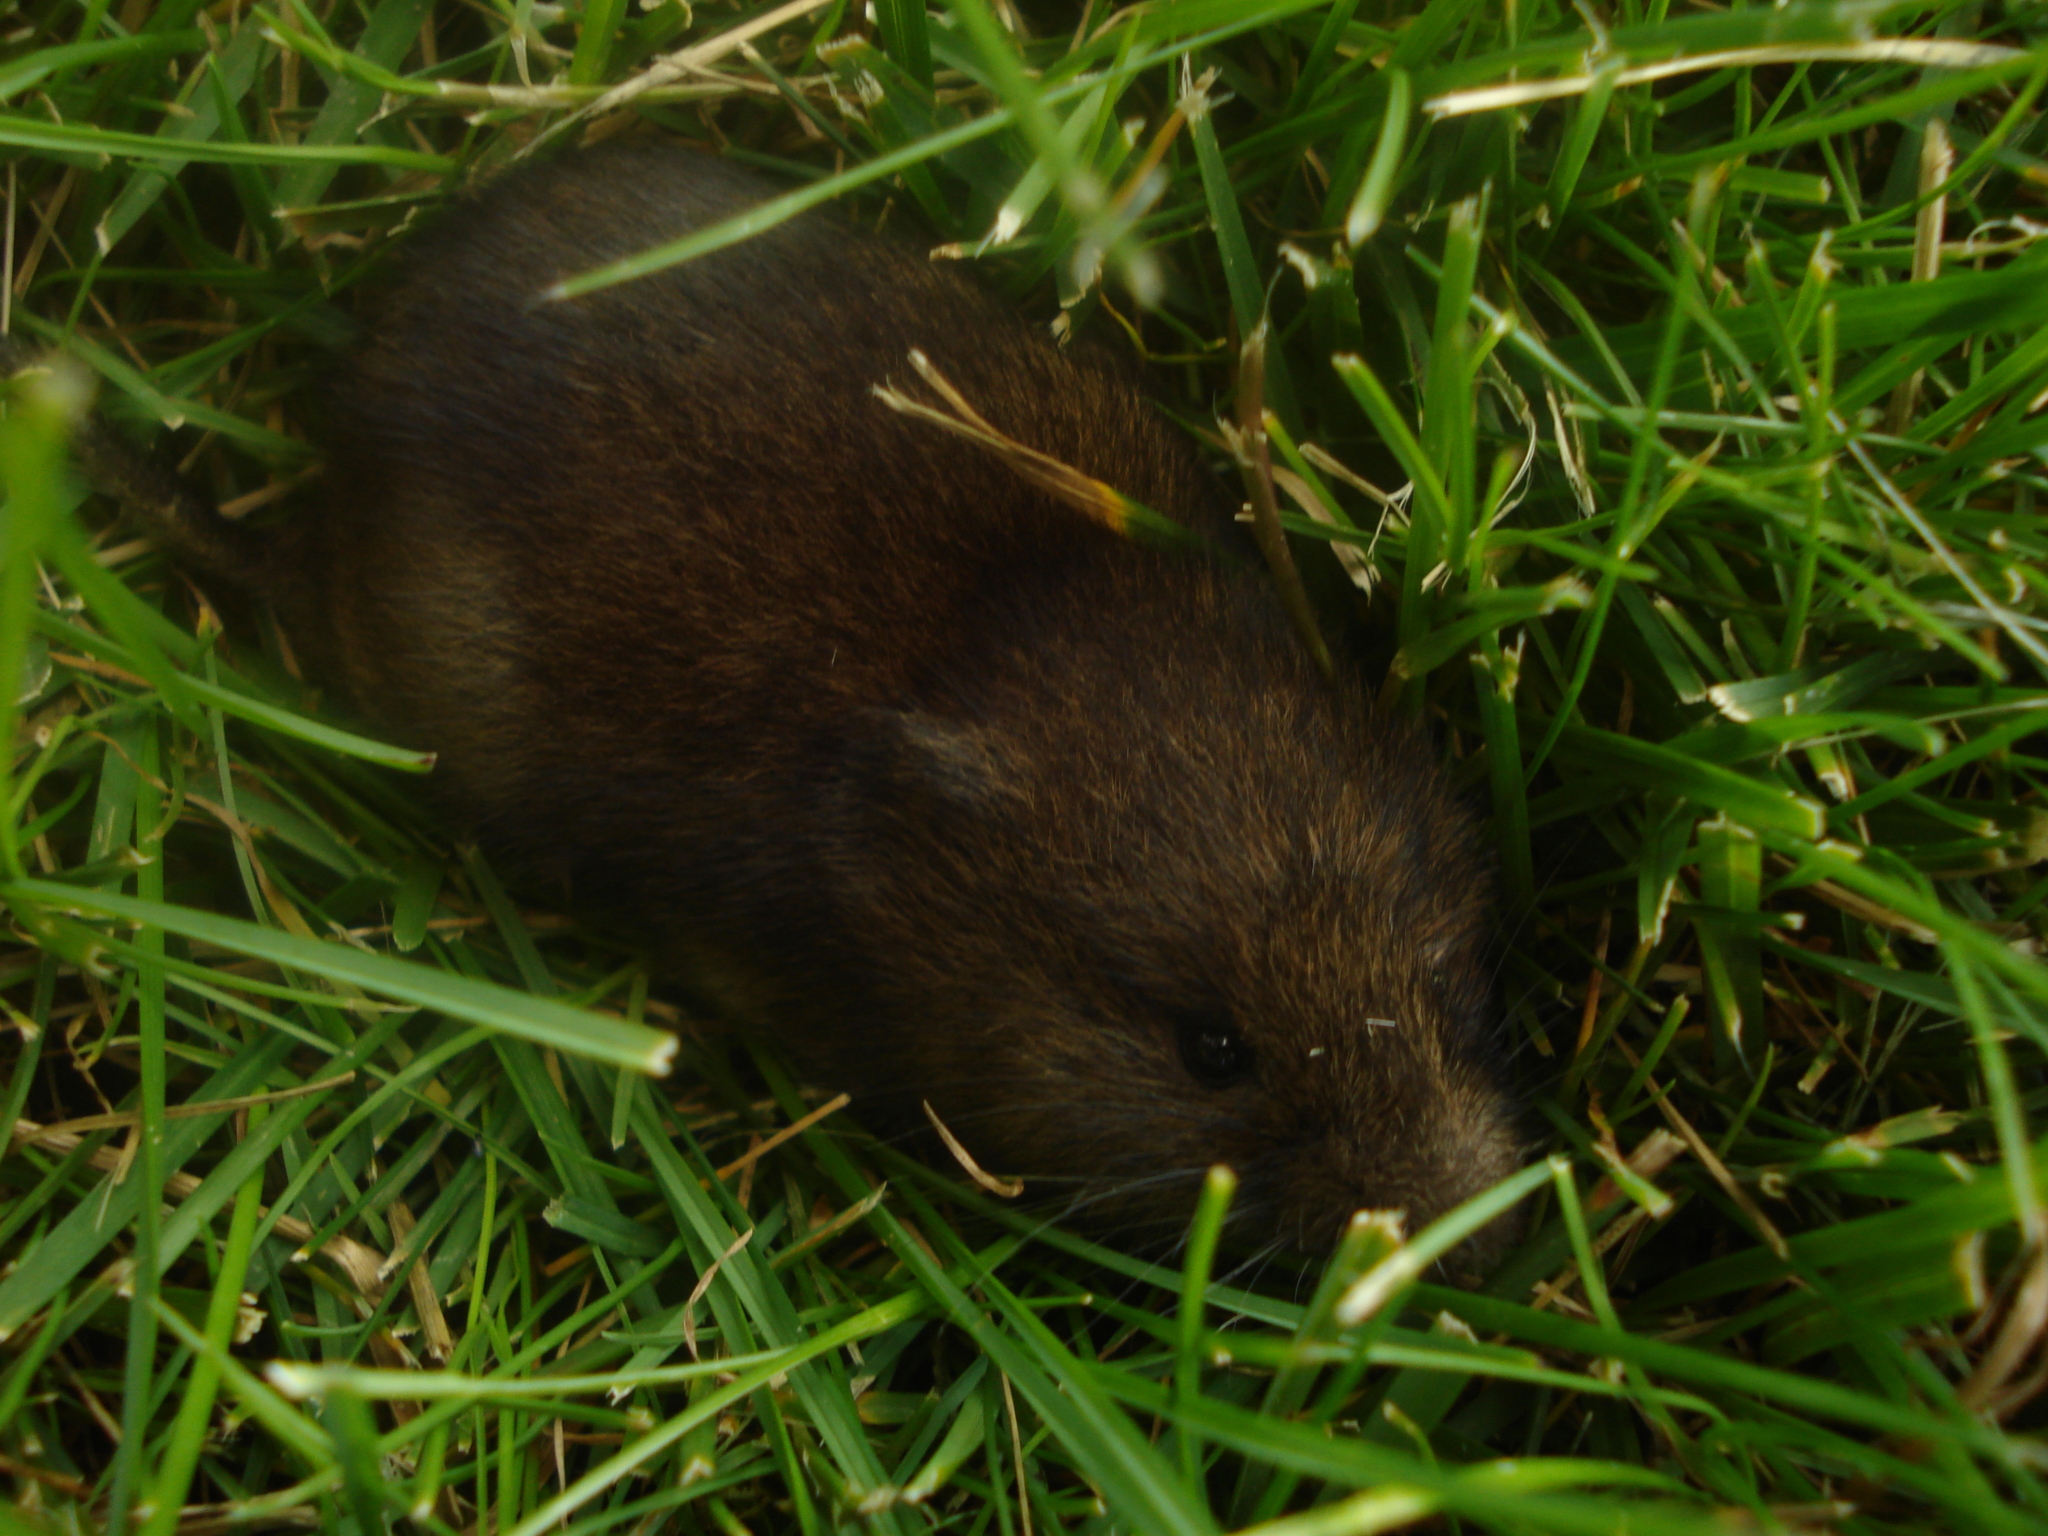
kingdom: Animalia
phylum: Chordata
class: Mammalia
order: Rodentia
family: Cricetidae
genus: Microtus
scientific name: Microtus pennsylvanicus
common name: Meadow vole
